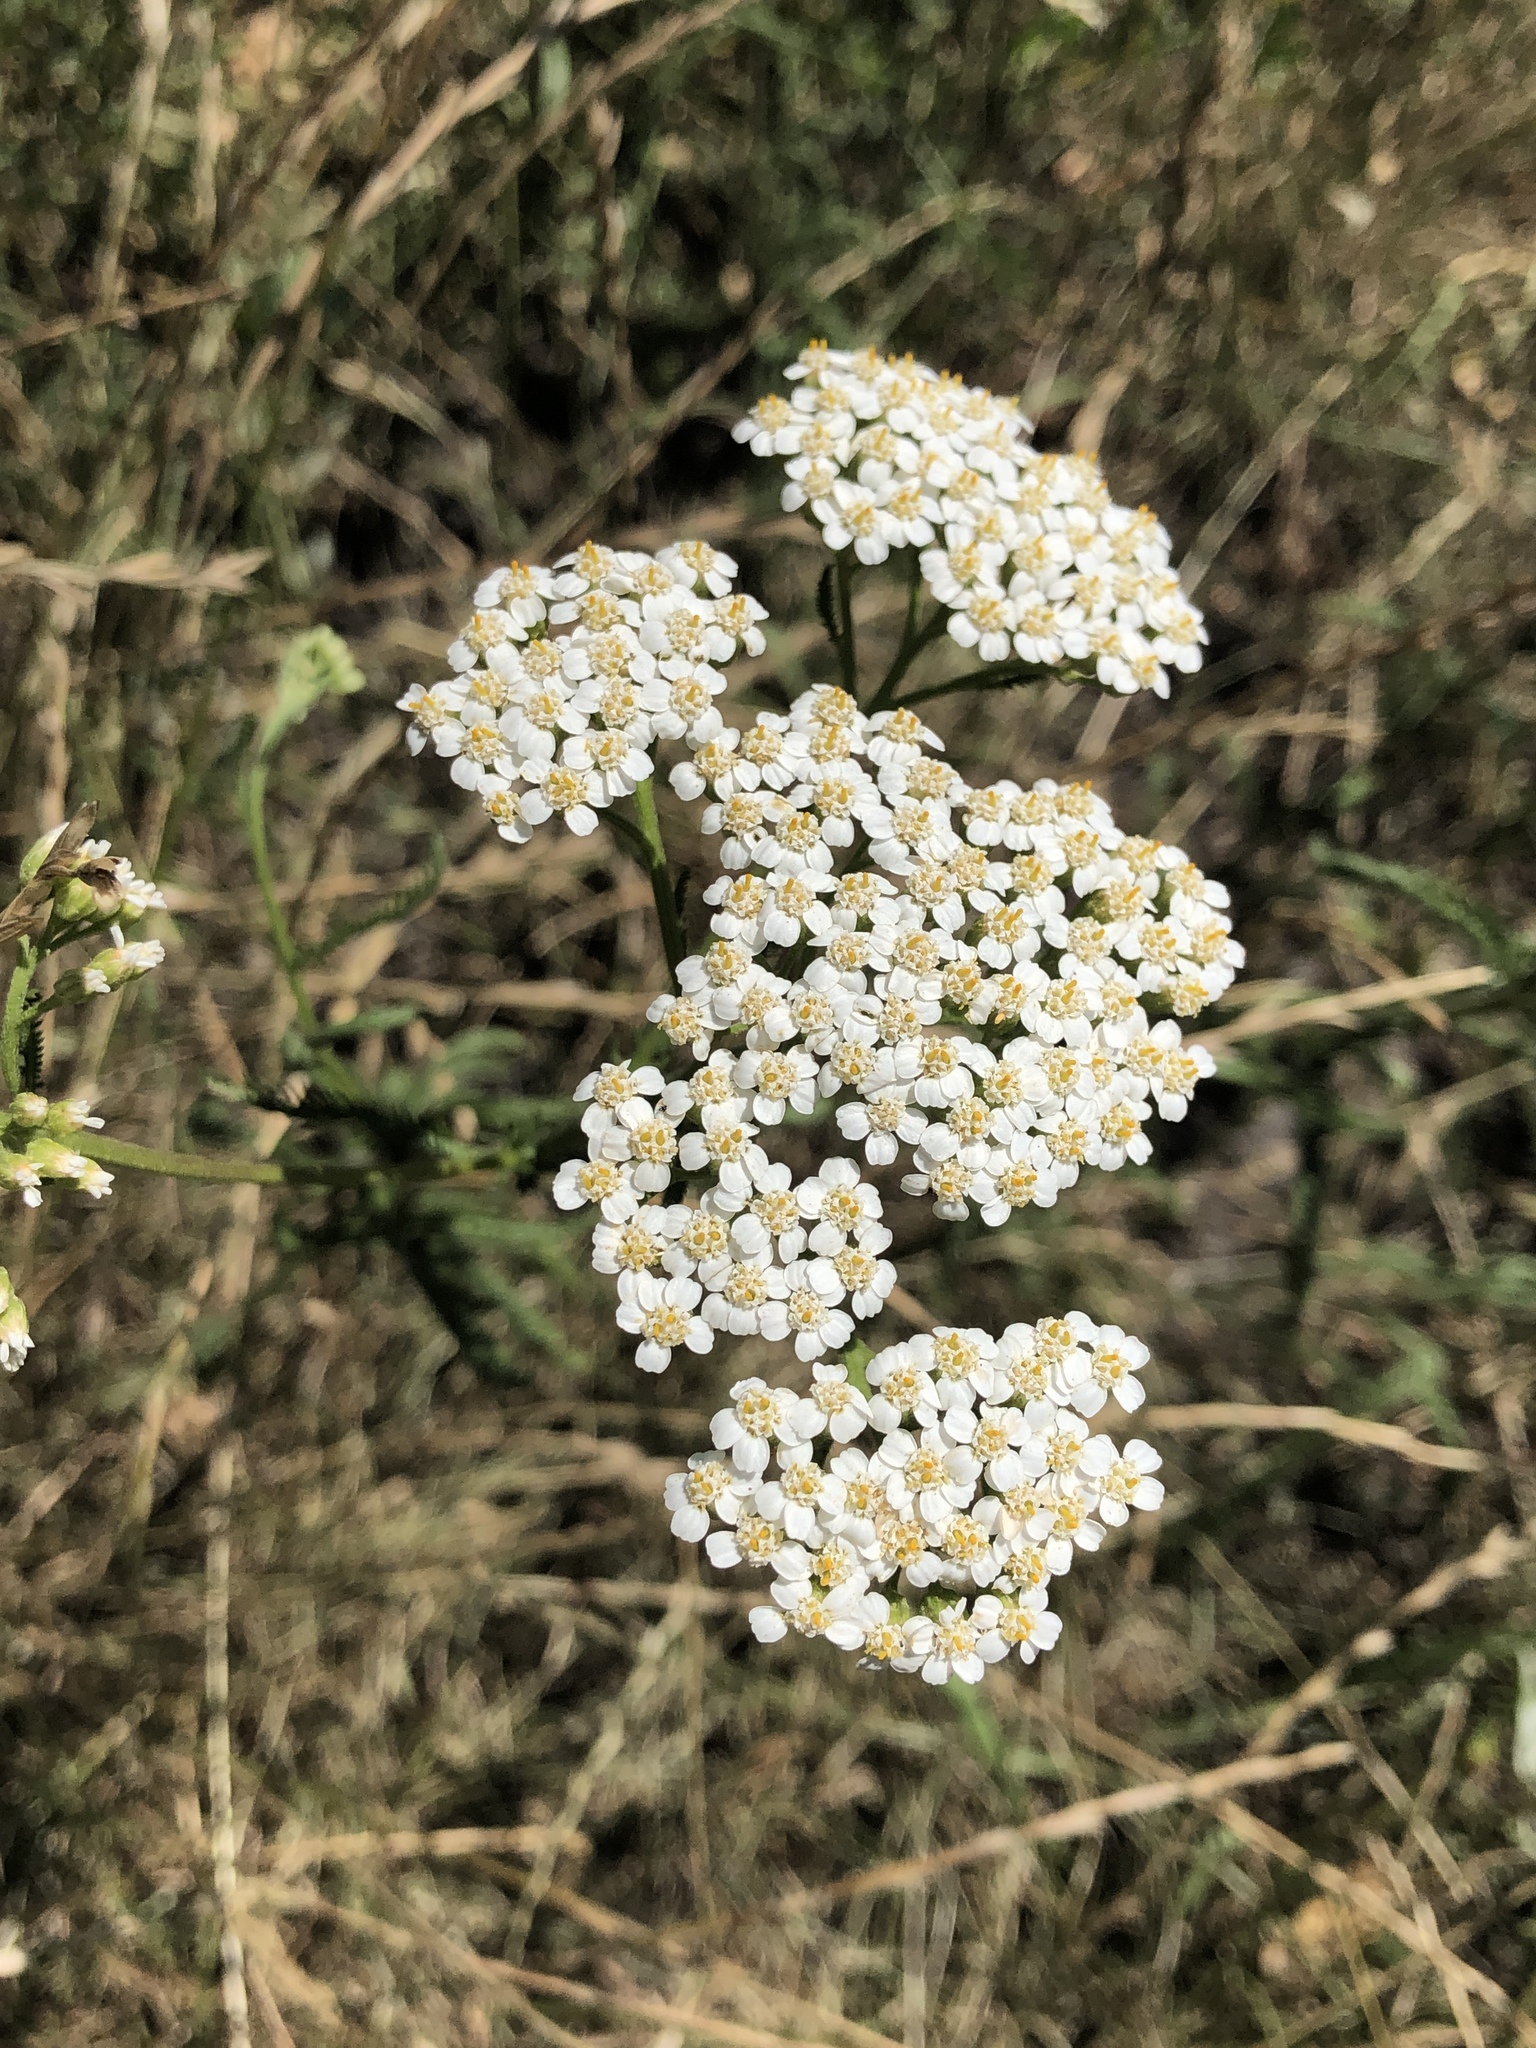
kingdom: Plantae
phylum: Tracheophyta
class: Magnoliopsida
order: Asterales
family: Asteraceae
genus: Achillea
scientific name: Achillea millefolium
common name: Yarrow
